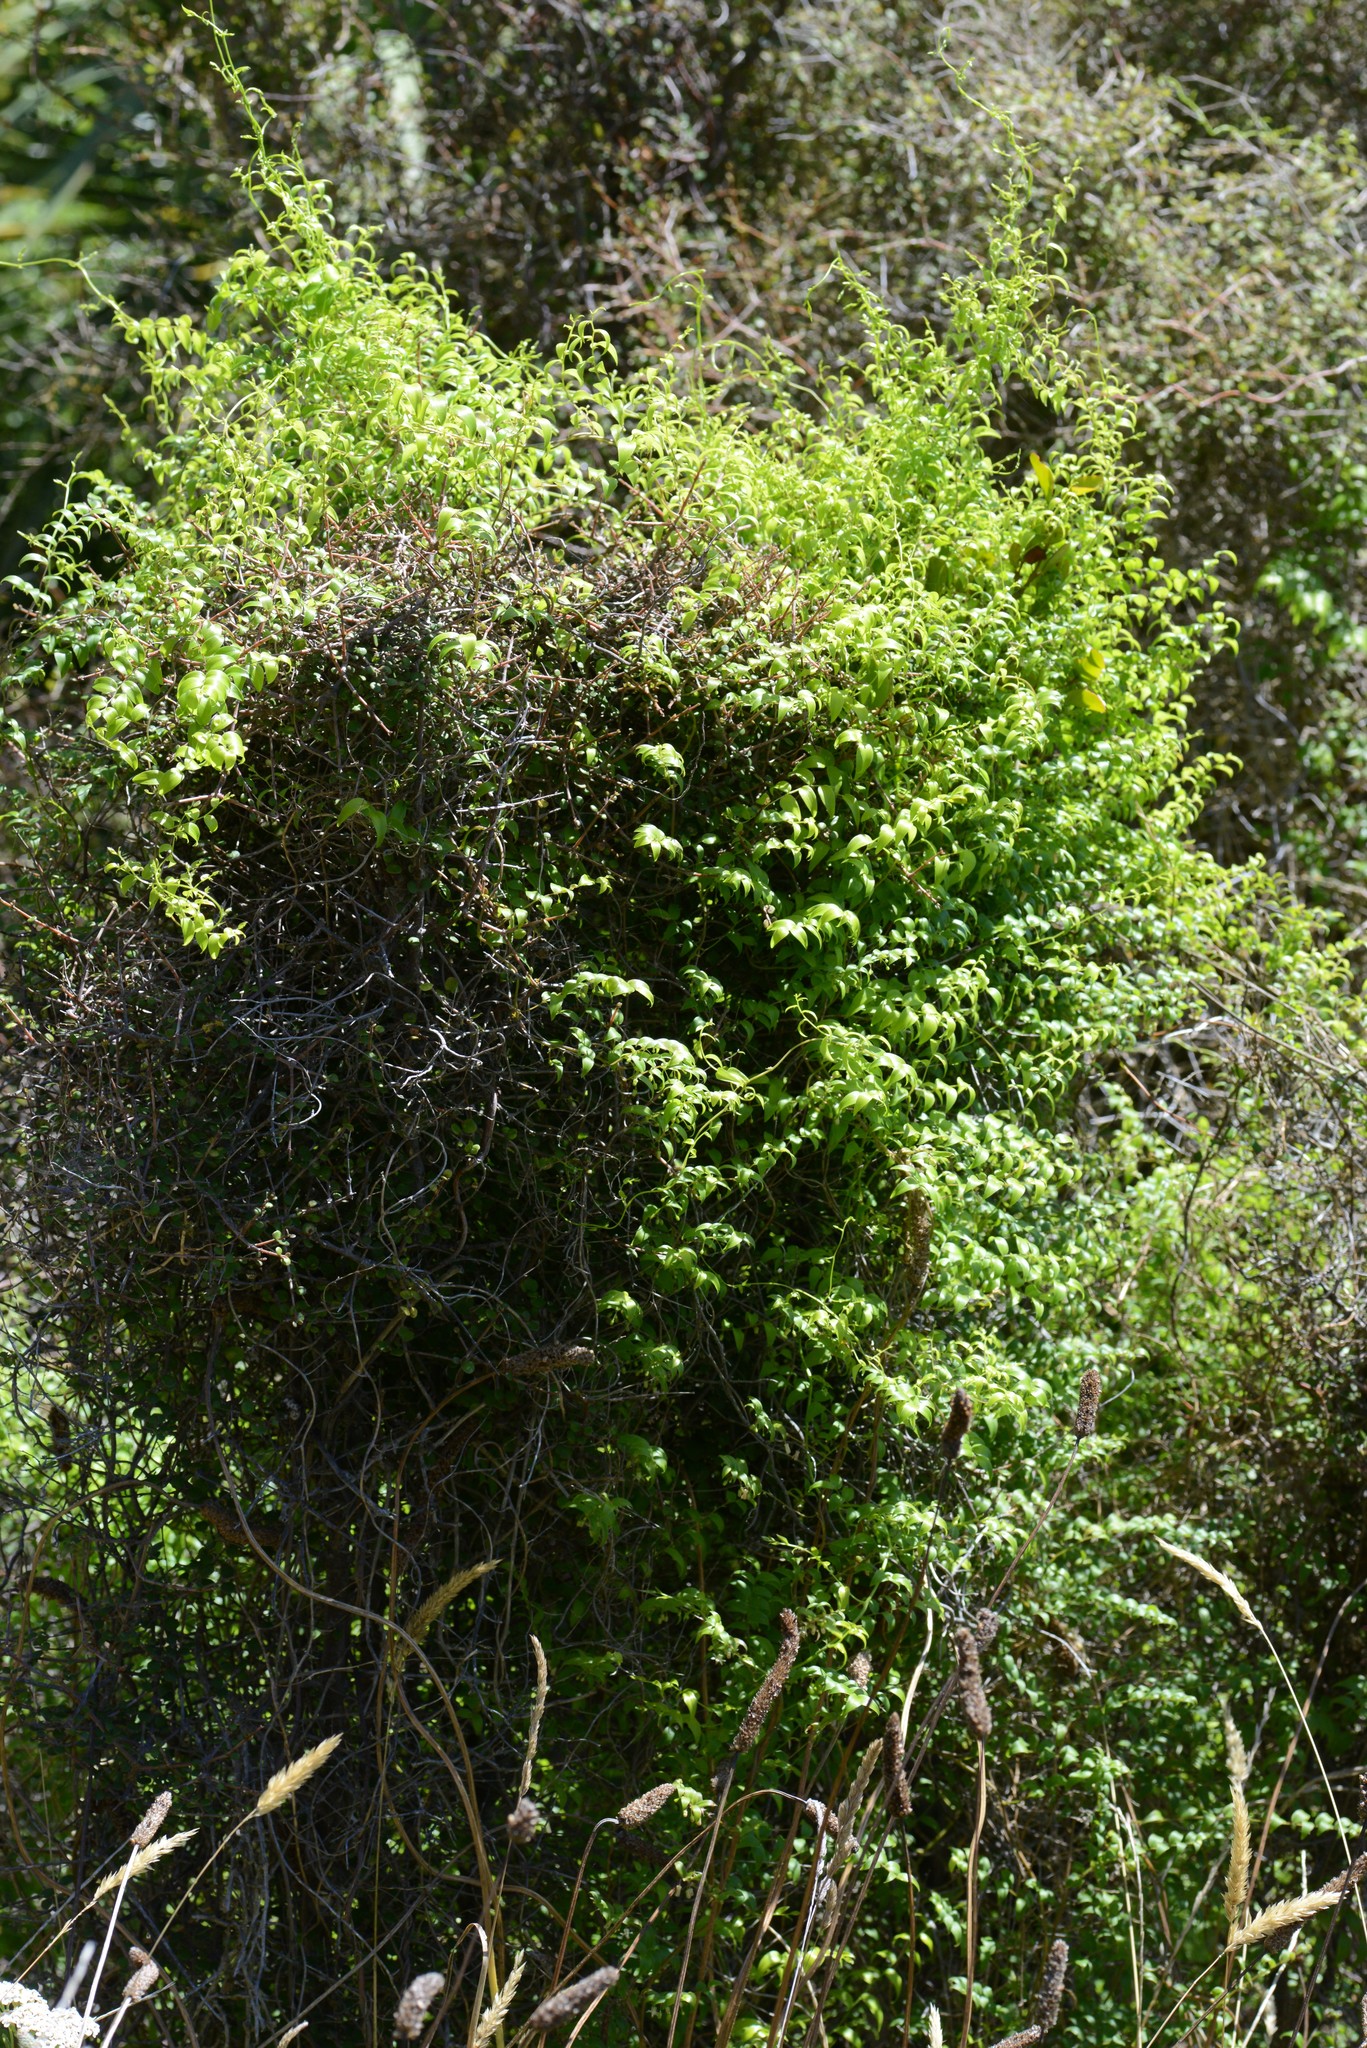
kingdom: Plantae
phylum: Tracheophyta
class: Liliopsida
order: Asparagales
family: Asparagaceae
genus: Asparagus
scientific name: Asparagus asparagoides
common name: African asparagus fern
